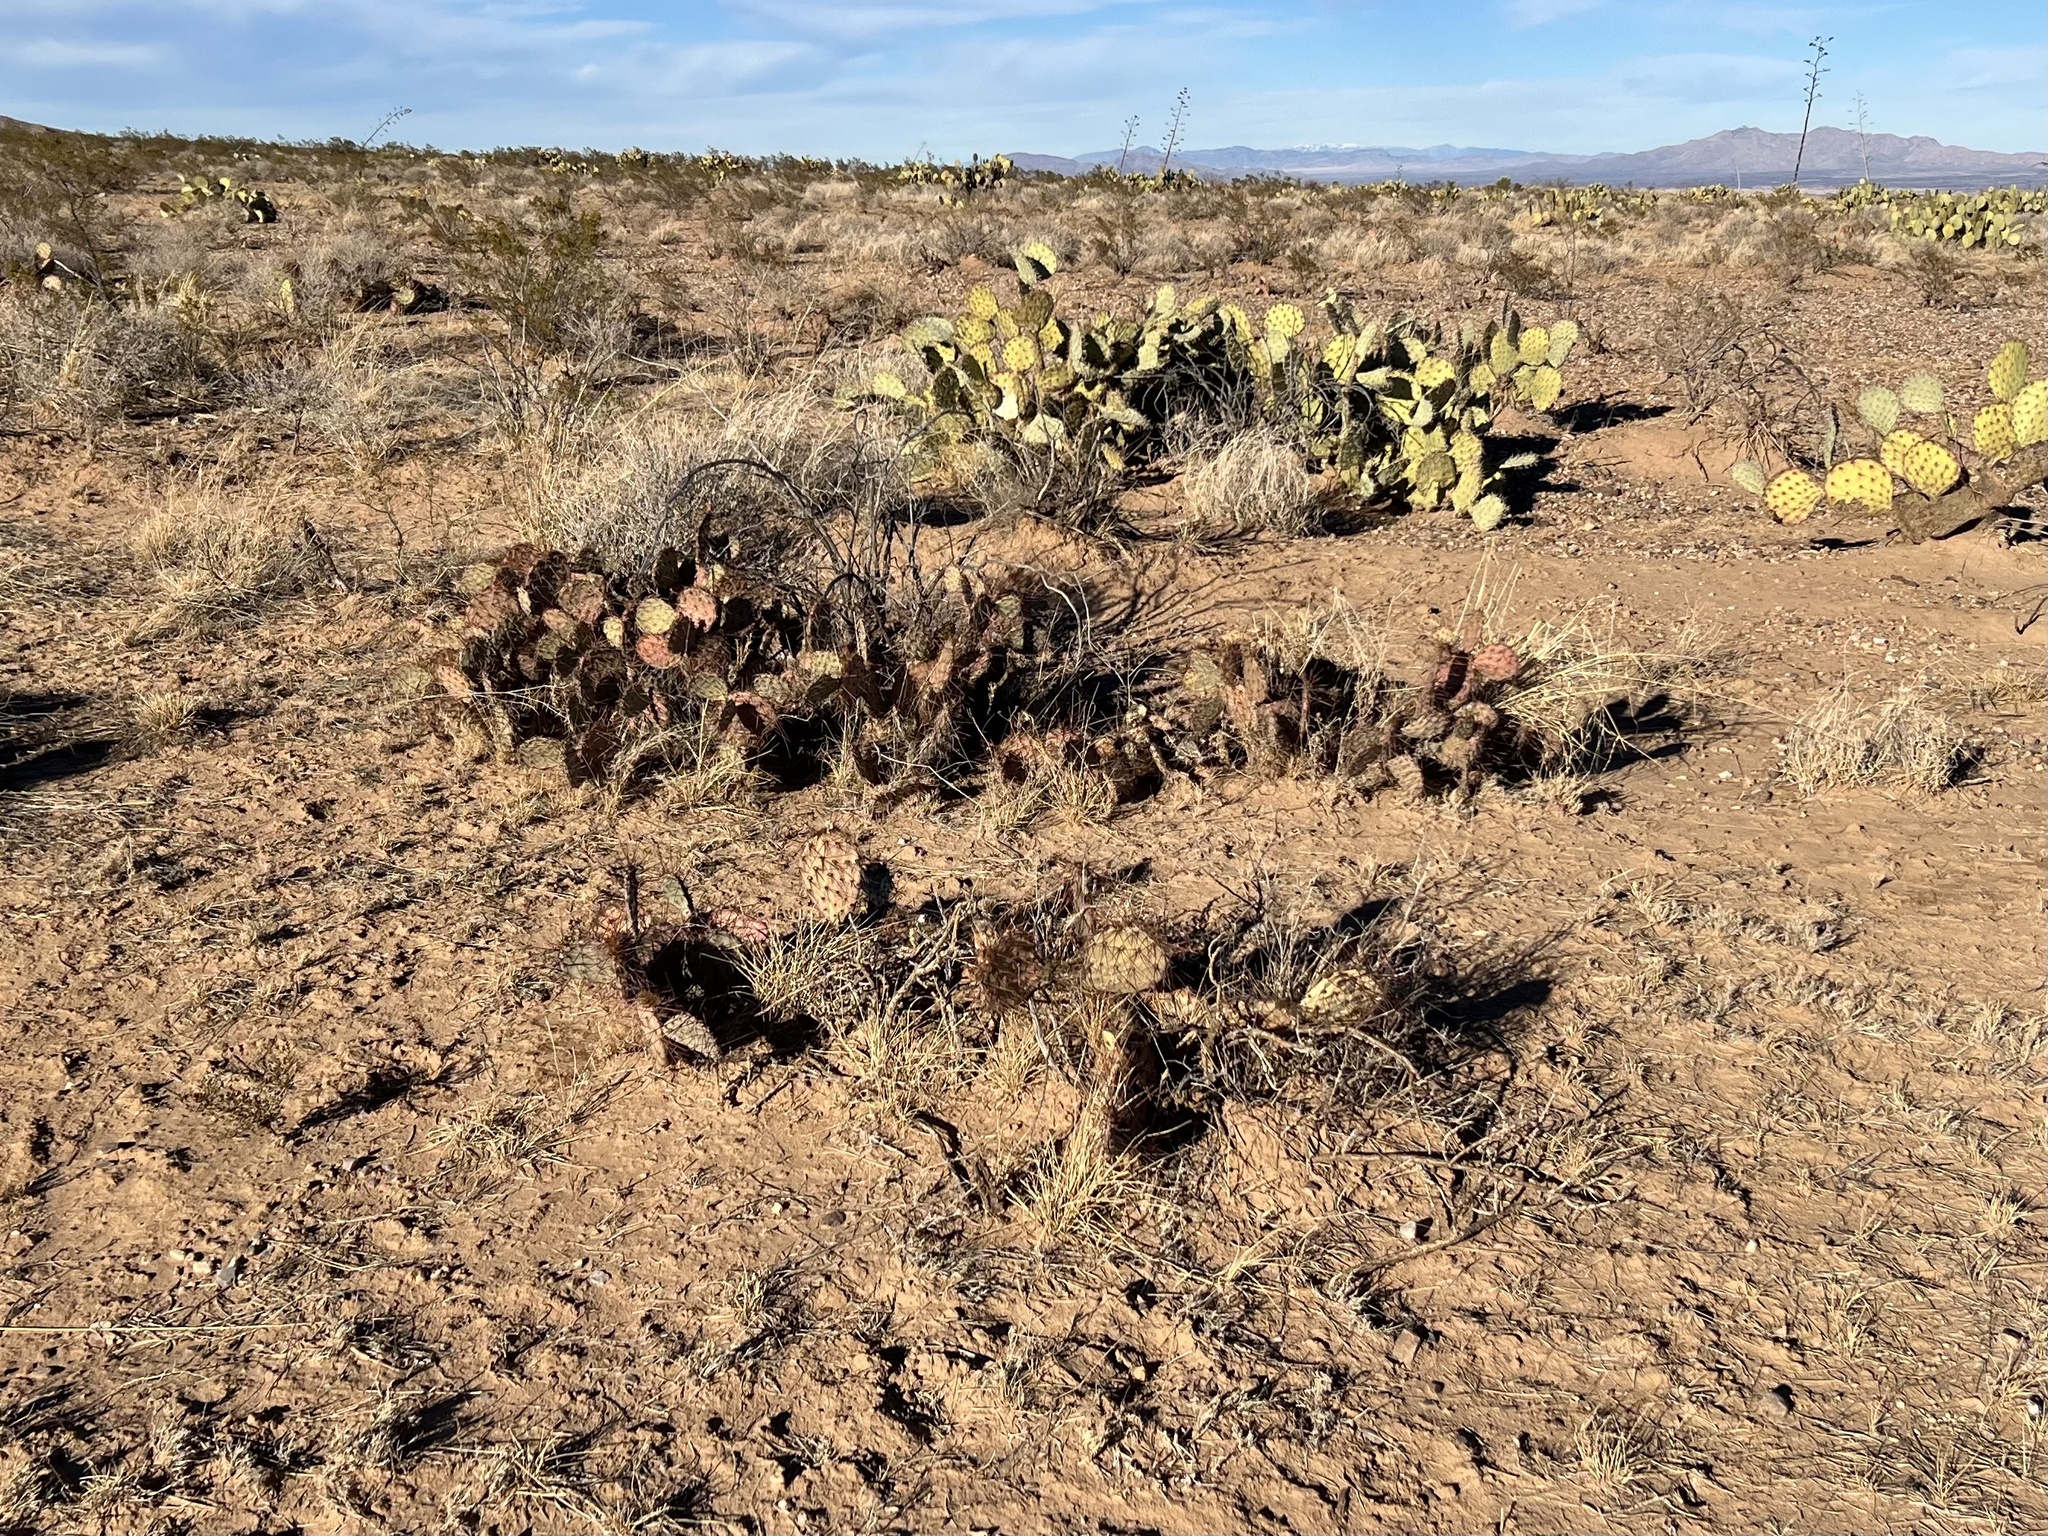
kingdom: Plantae
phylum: Tracheophyta
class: Magnoliopsida
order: Caryophyllales
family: Cactaceae
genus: Opuntia
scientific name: Opuntia phaeacantha
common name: New mexico prickly-pear
